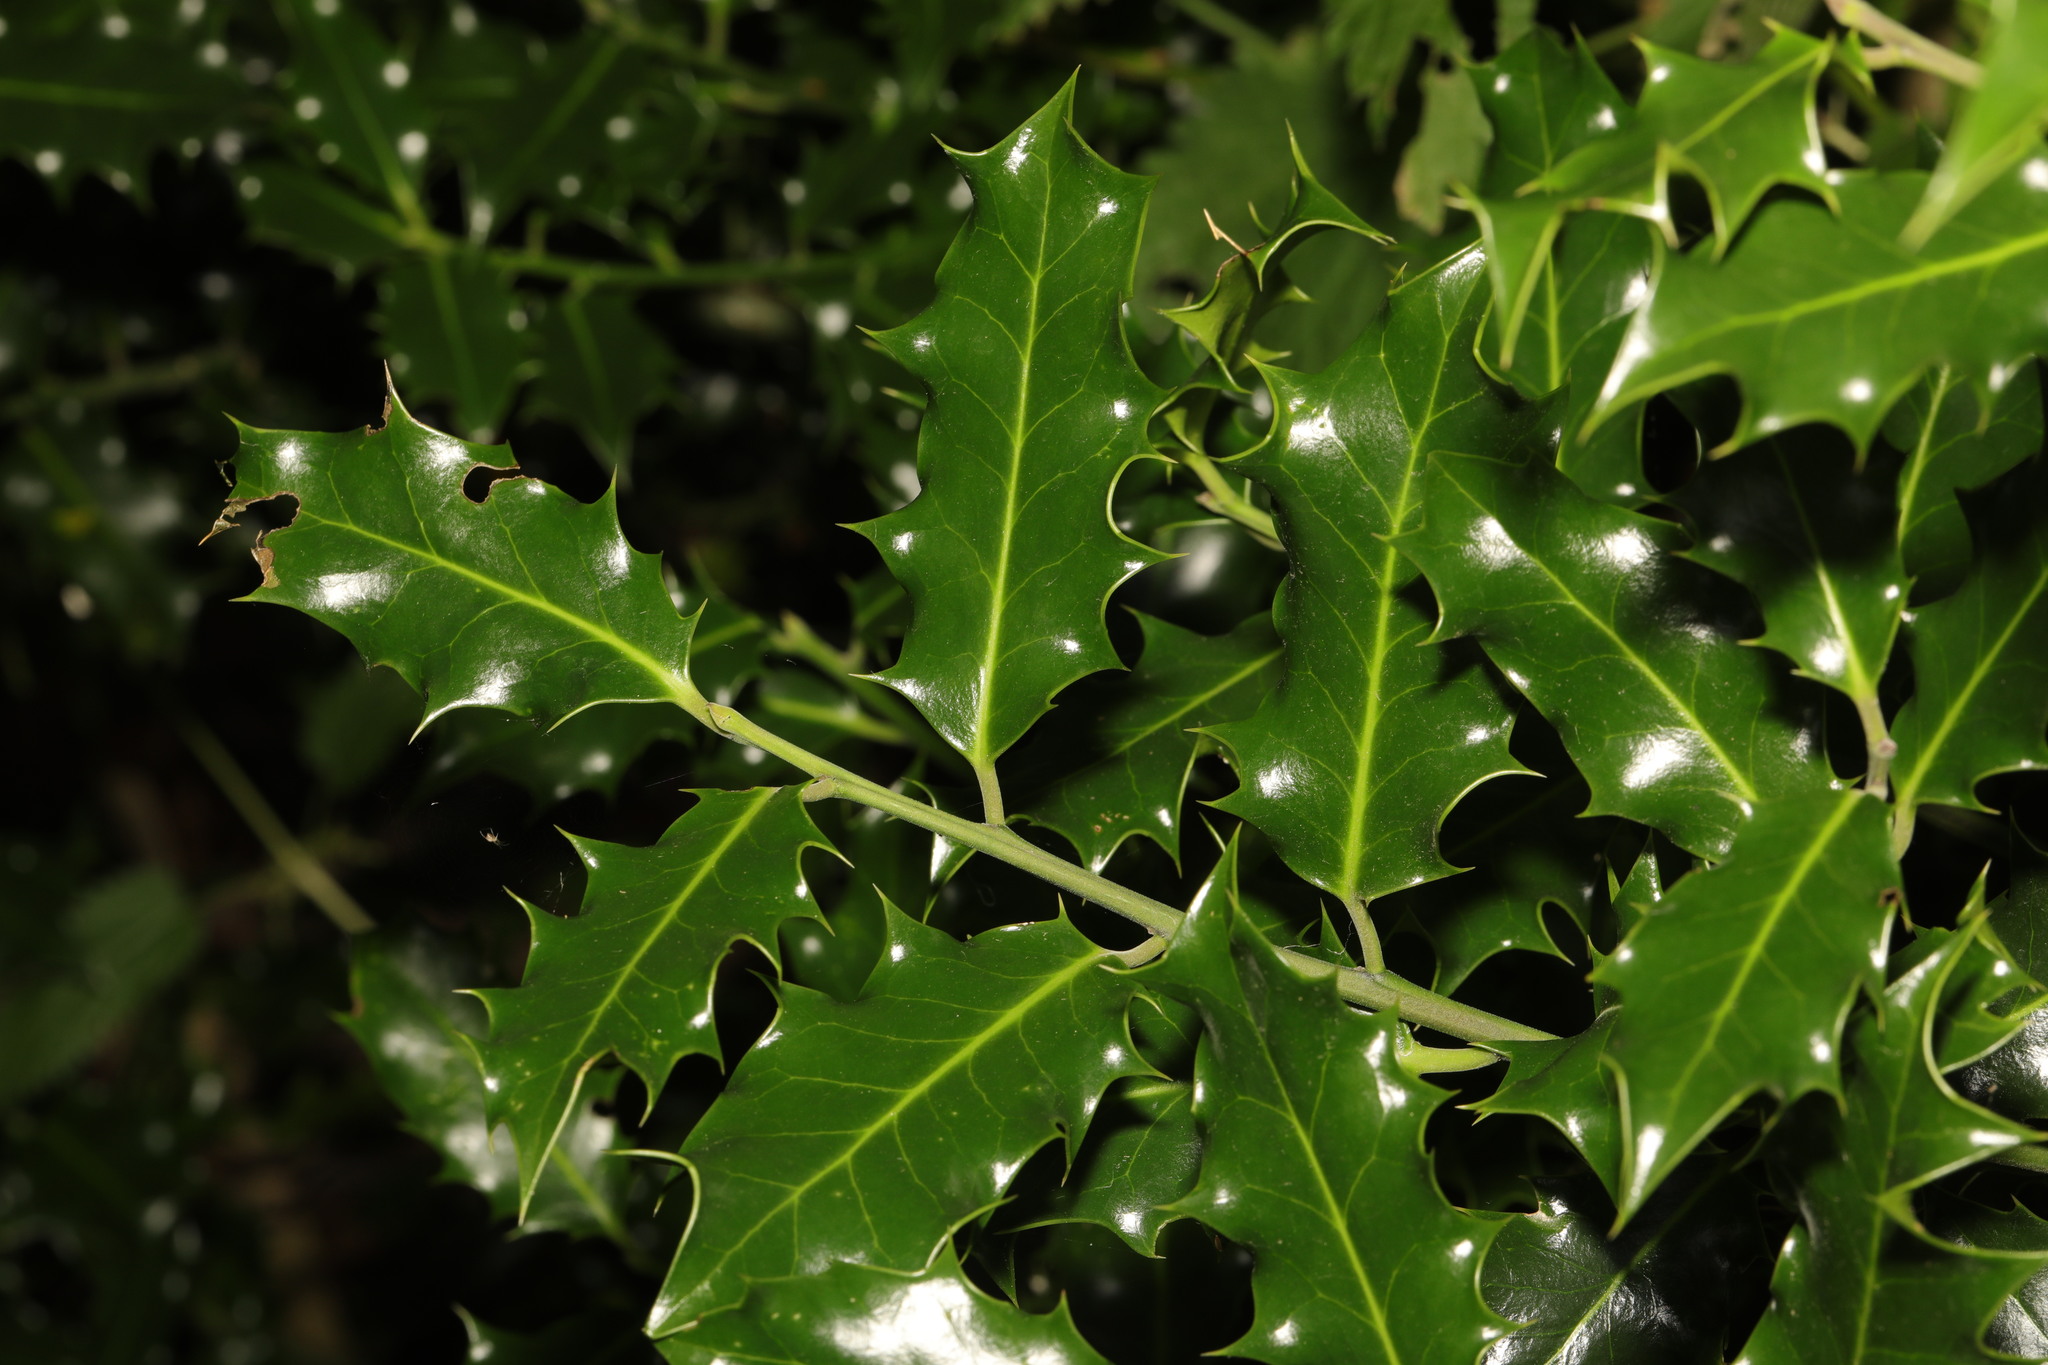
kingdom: Plantae
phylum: Tracheophyta
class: Magnoliopsida
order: Aquifoliales
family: Aquifoliaceae
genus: Ilex
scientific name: Ilex aquifolium
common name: English holly
